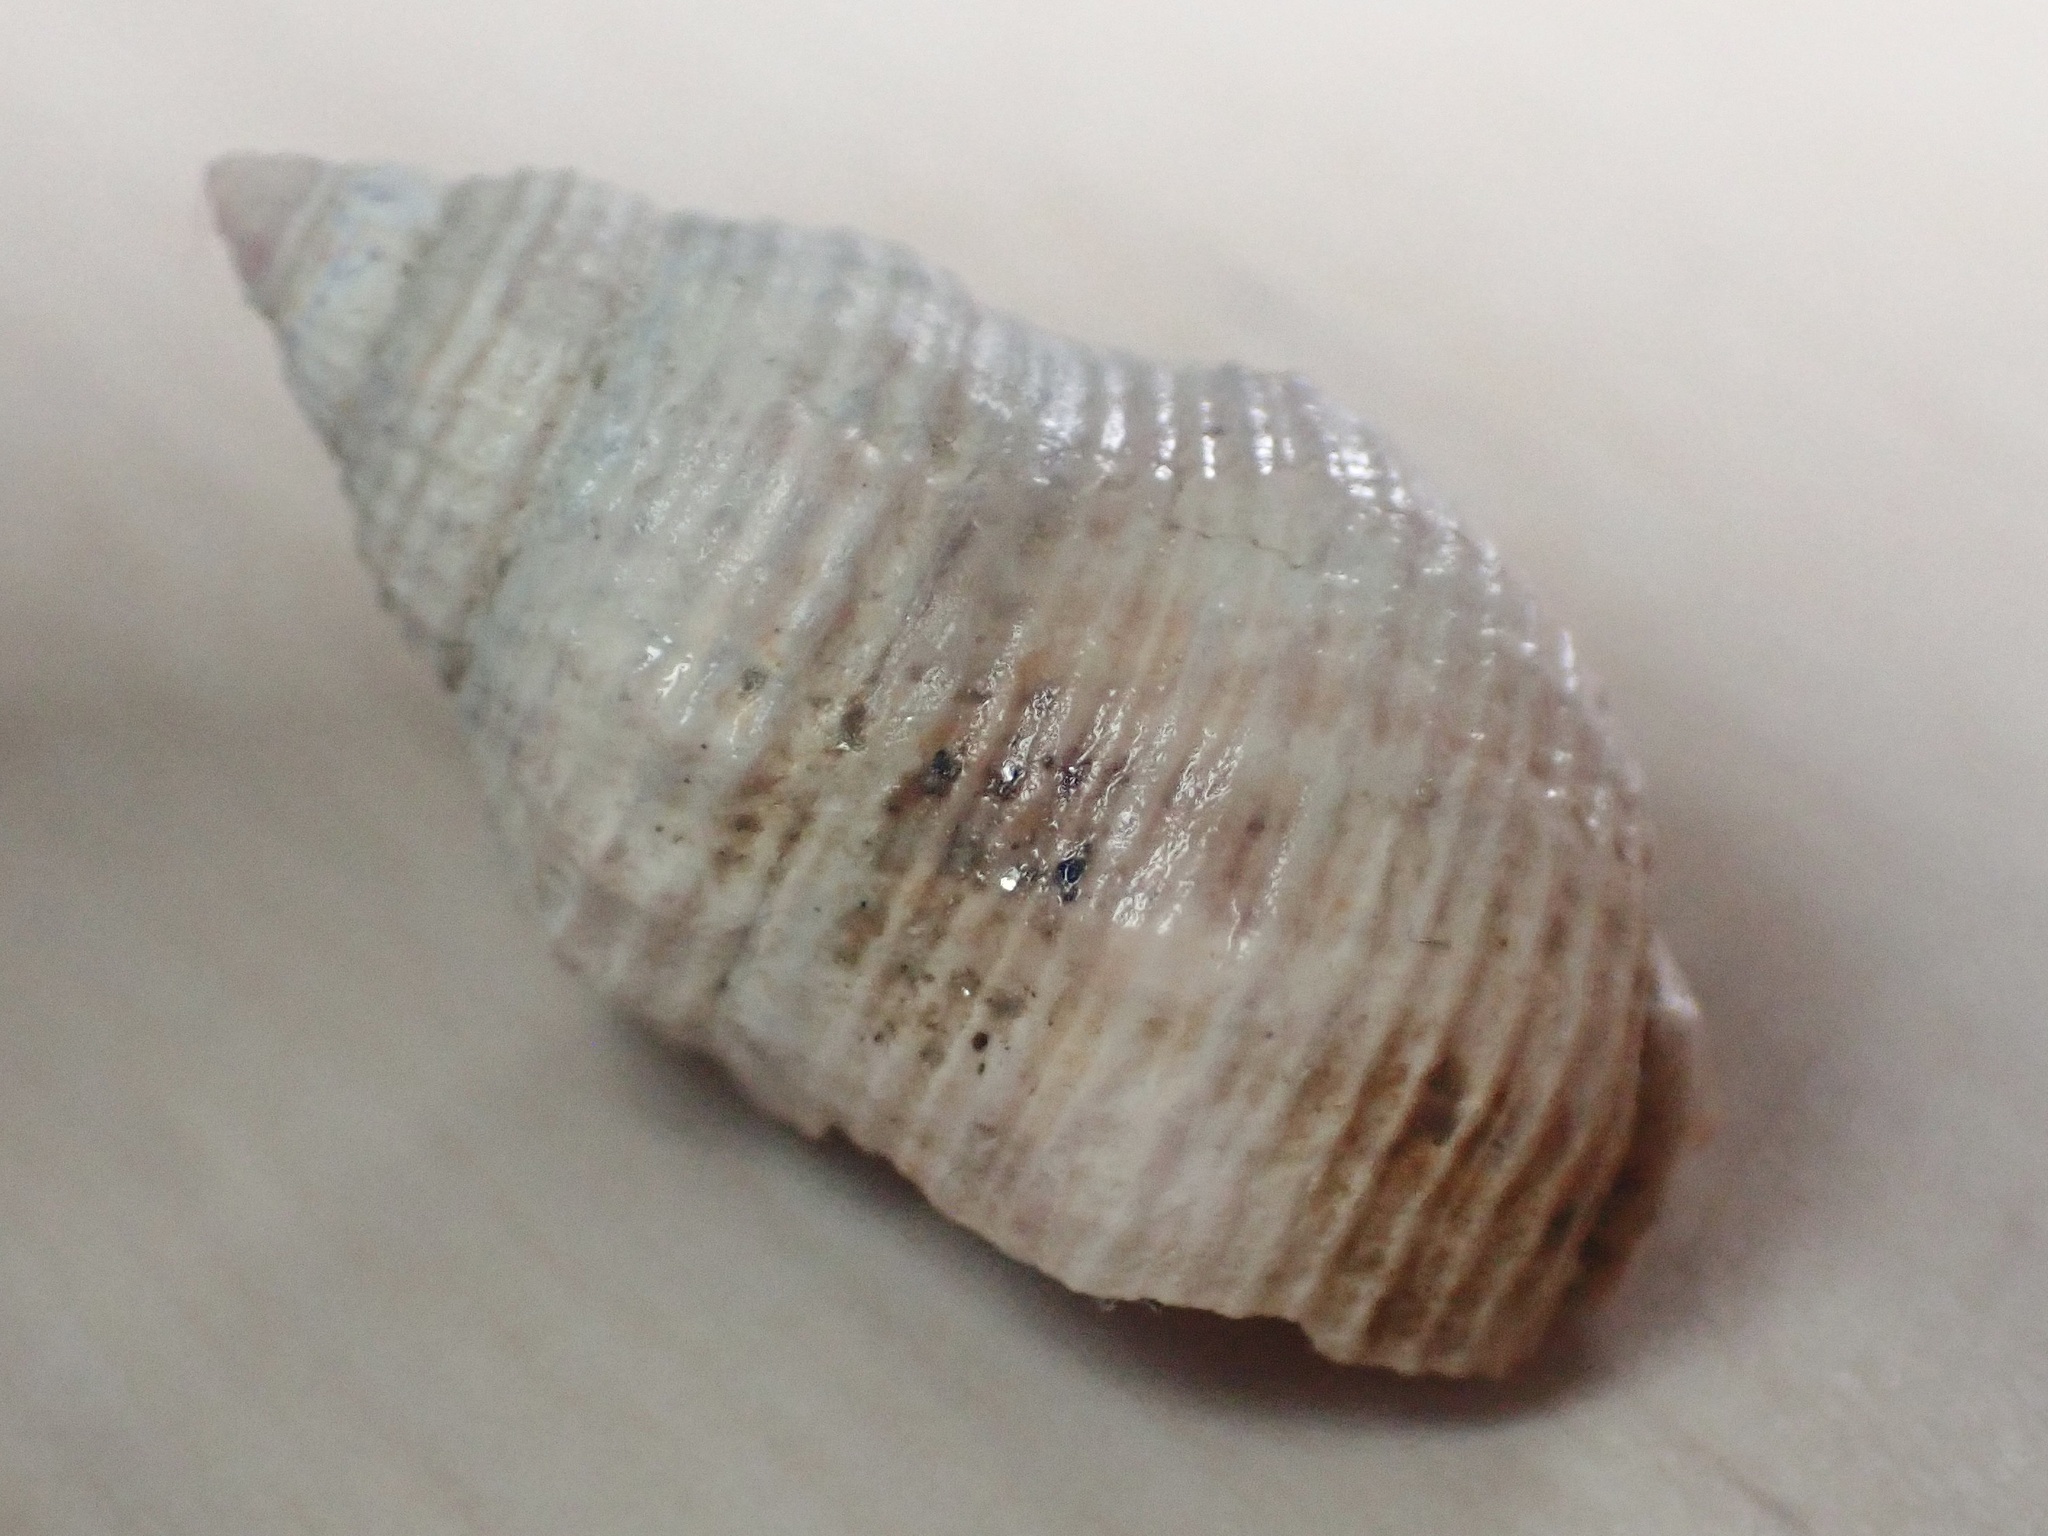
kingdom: Animalia
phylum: Mollusca
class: Gastropoda
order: Neogastropoda
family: Nassariidae
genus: Caesia
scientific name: Caesia fossata
